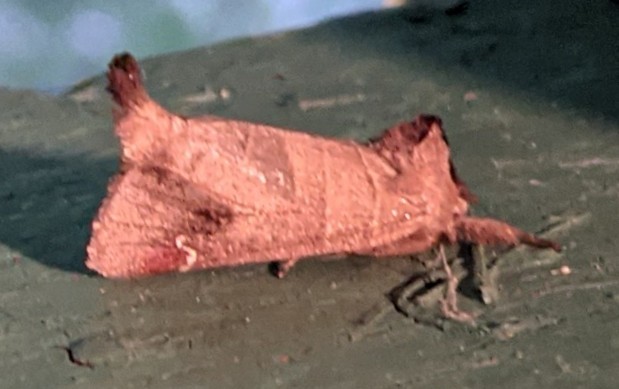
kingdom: Animalia
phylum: Arthropoda
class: Insecta
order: Lepidoptera
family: Notodontidae
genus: Clostera
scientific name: Clostera albosigma
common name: Sigmoid prominent
